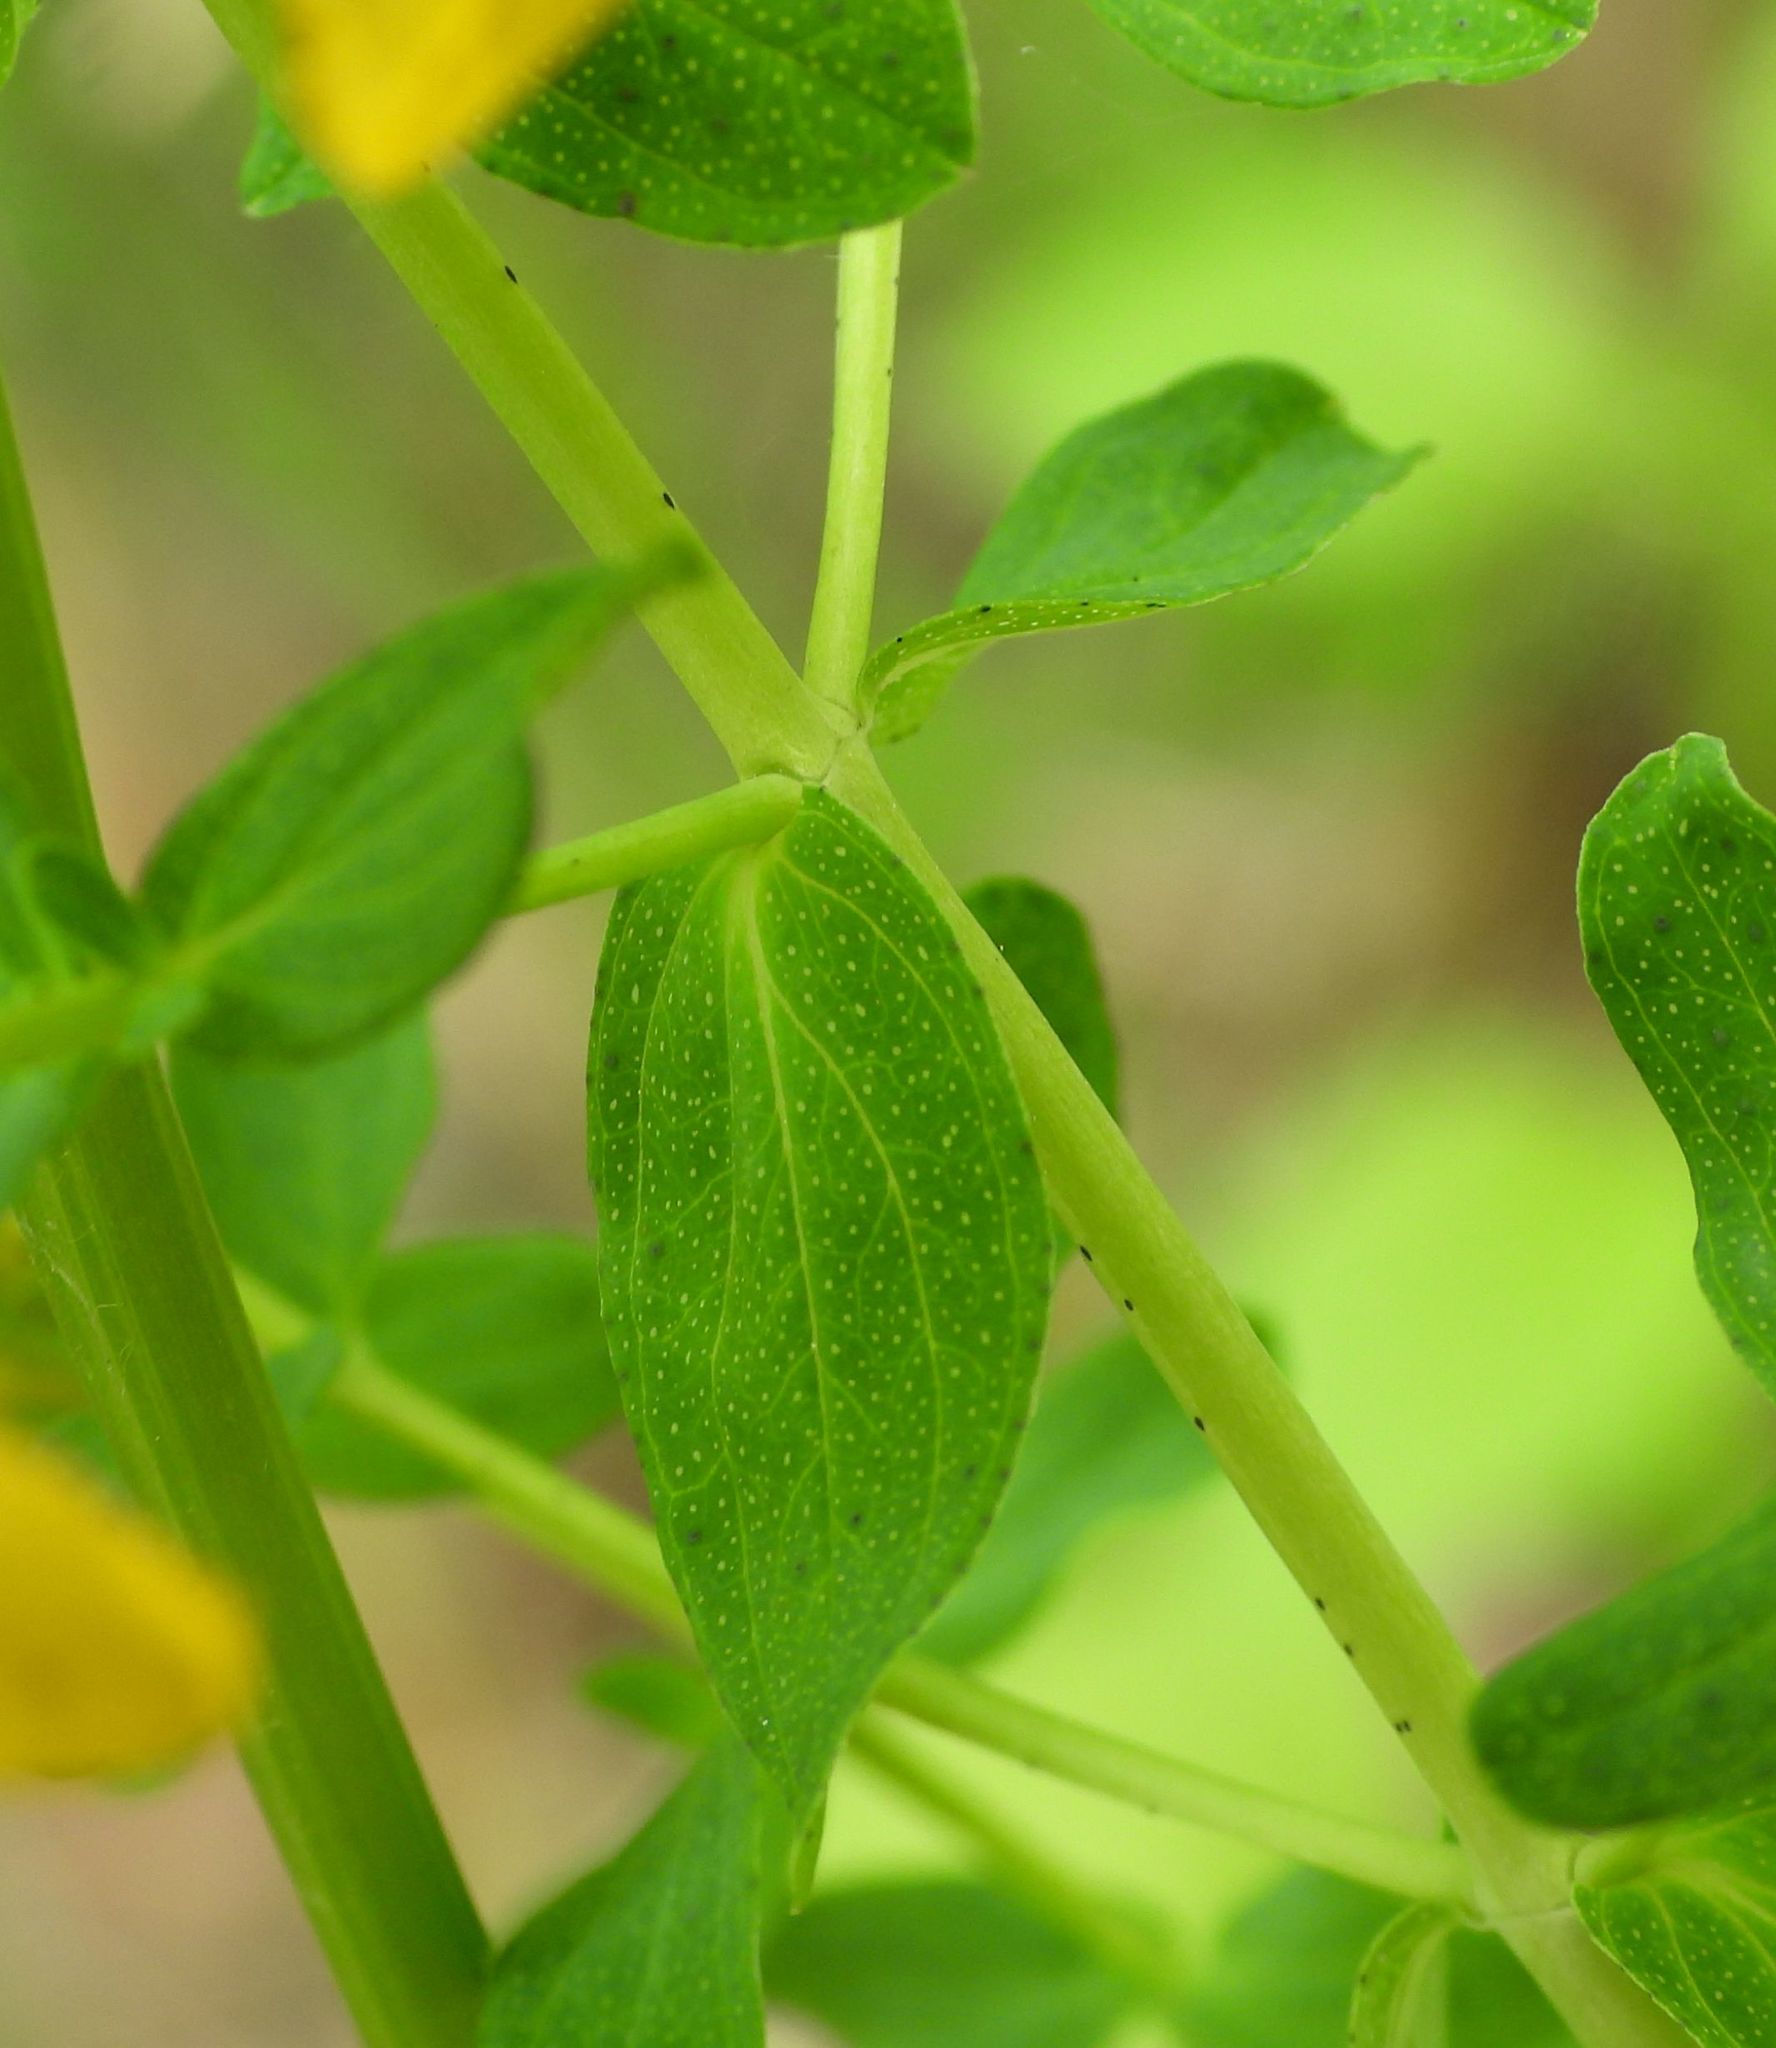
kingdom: Plantae
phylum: Tracheophyta
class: Magnoliopsida
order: Malpighiales
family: Hypericaceae
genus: Hypericum
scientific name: Hypericum perforatum
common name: Common st. johnswort
